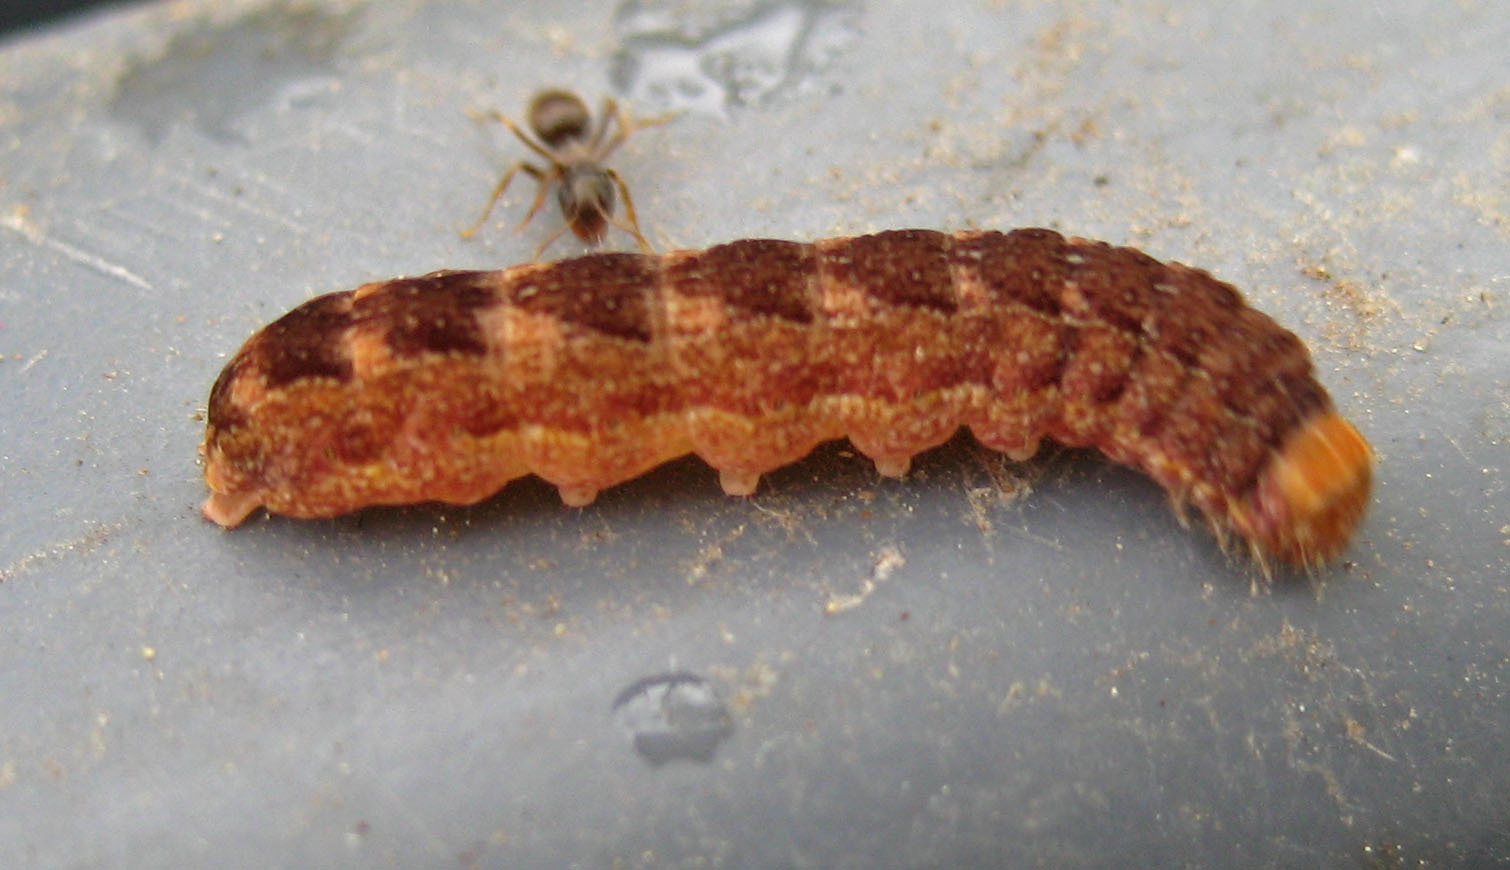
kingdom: Animalia
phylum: Arthropoda
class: Insecta
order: Lepidoptera
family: Noctuidae
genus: Agrochola
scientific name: Agrochola bicolorago
